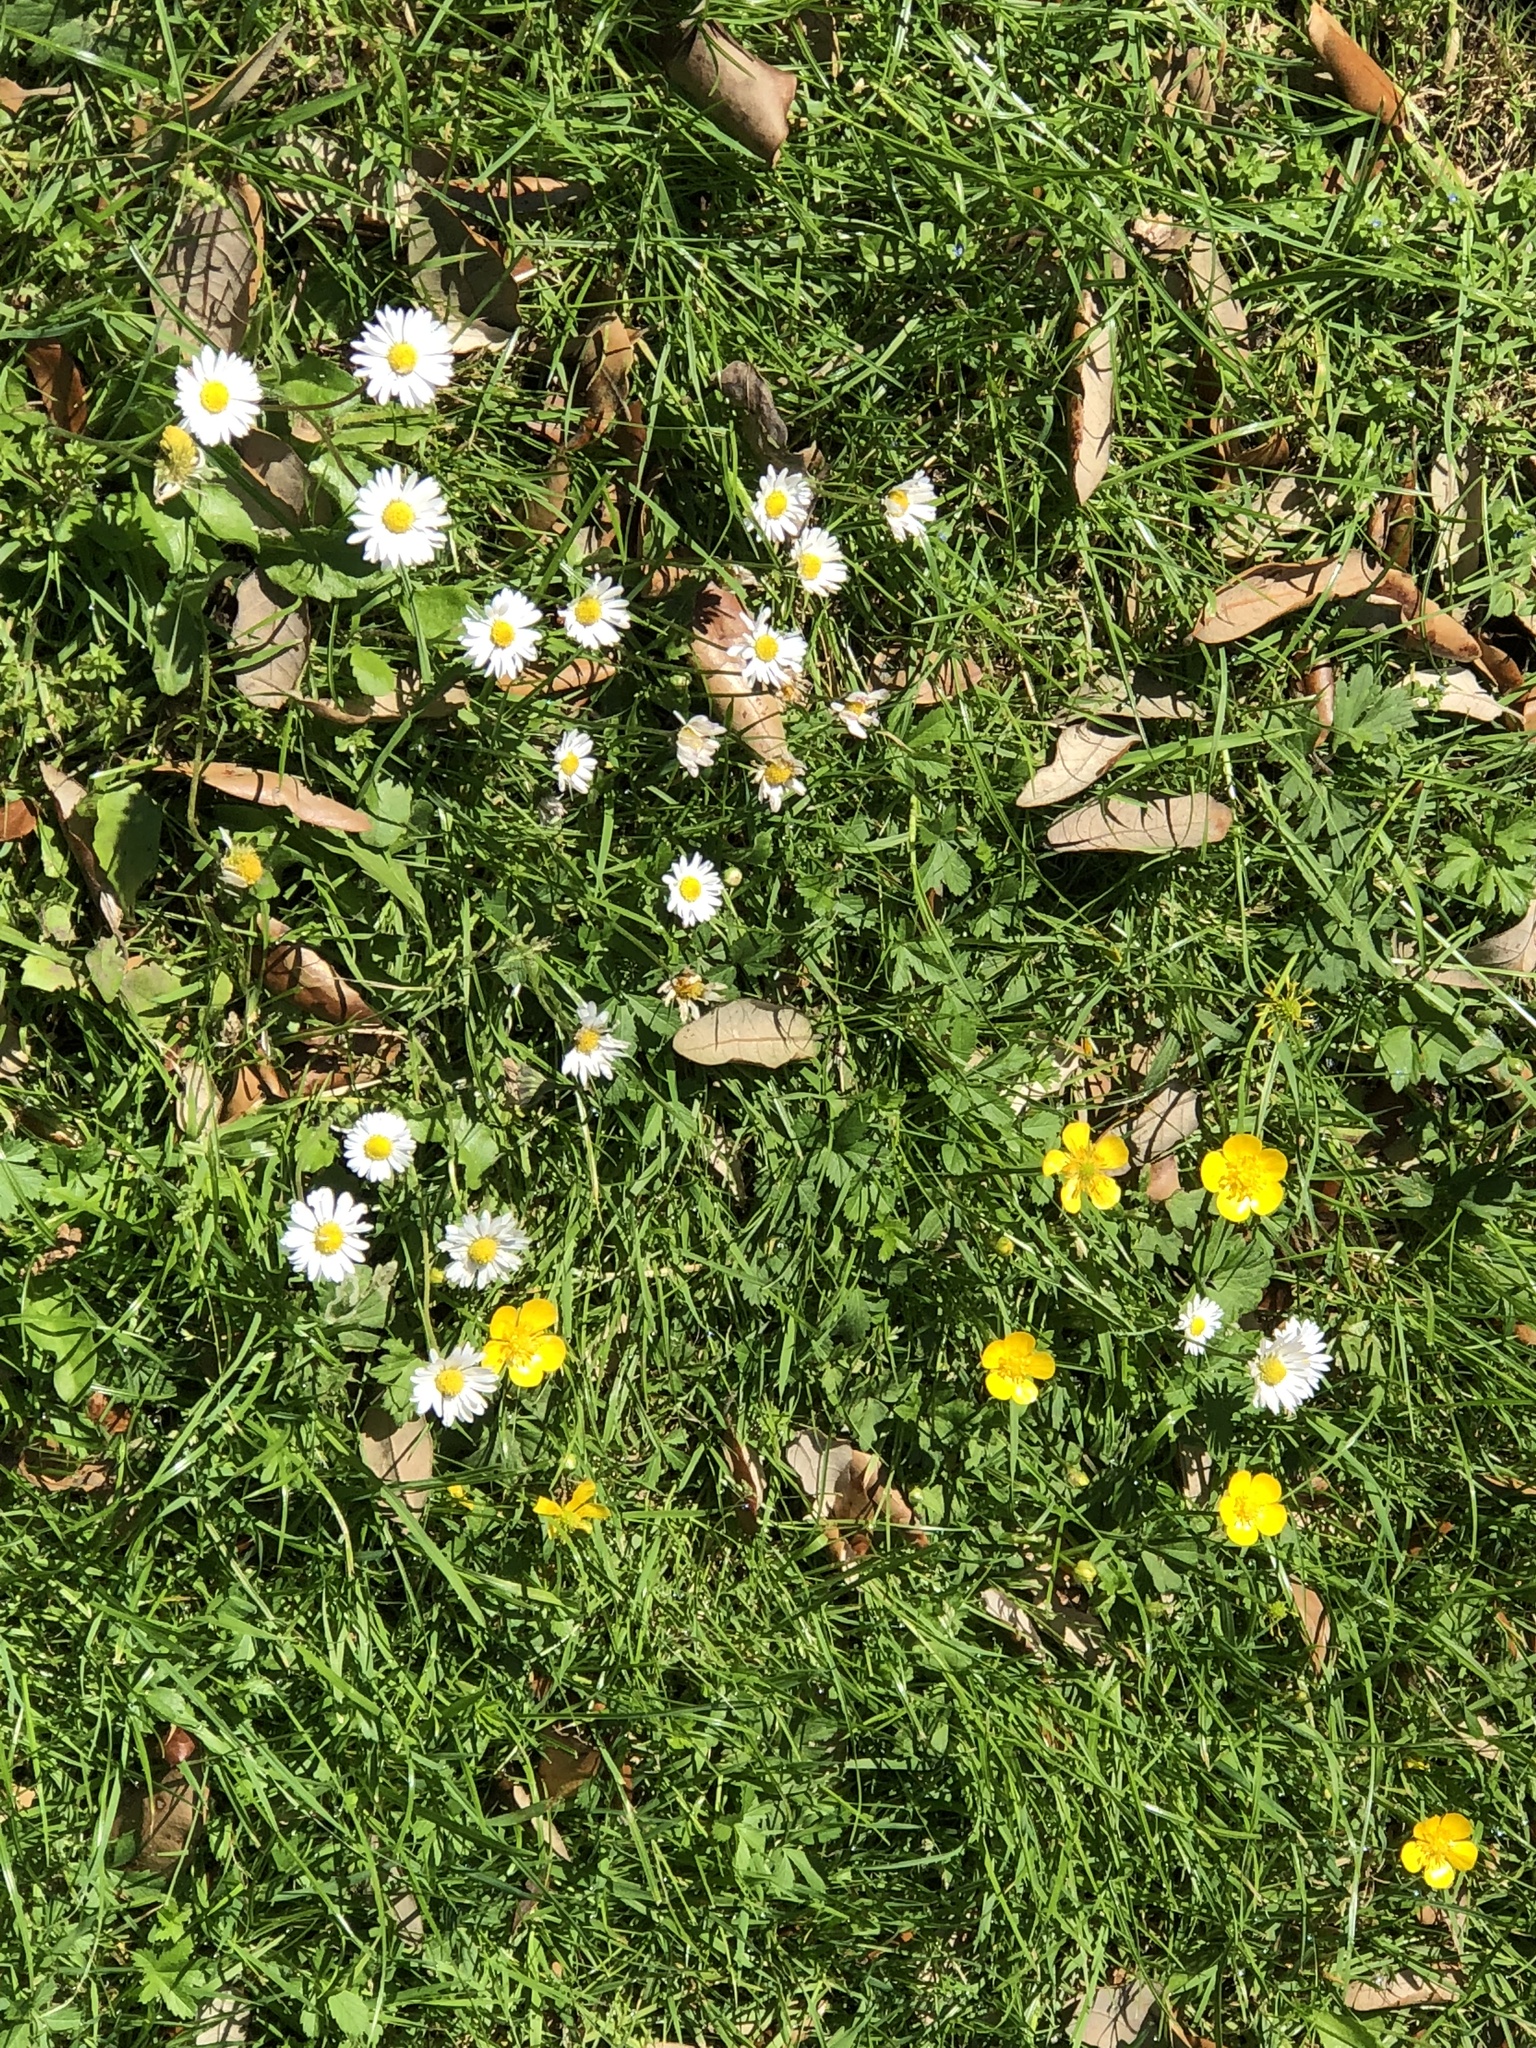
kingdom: Plantae
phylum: Tracheophyta
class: Magnoliopsida
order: Asterales
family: Asteraceae
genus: Bellis
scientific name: Bellis perennis
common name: Lawndaisy
